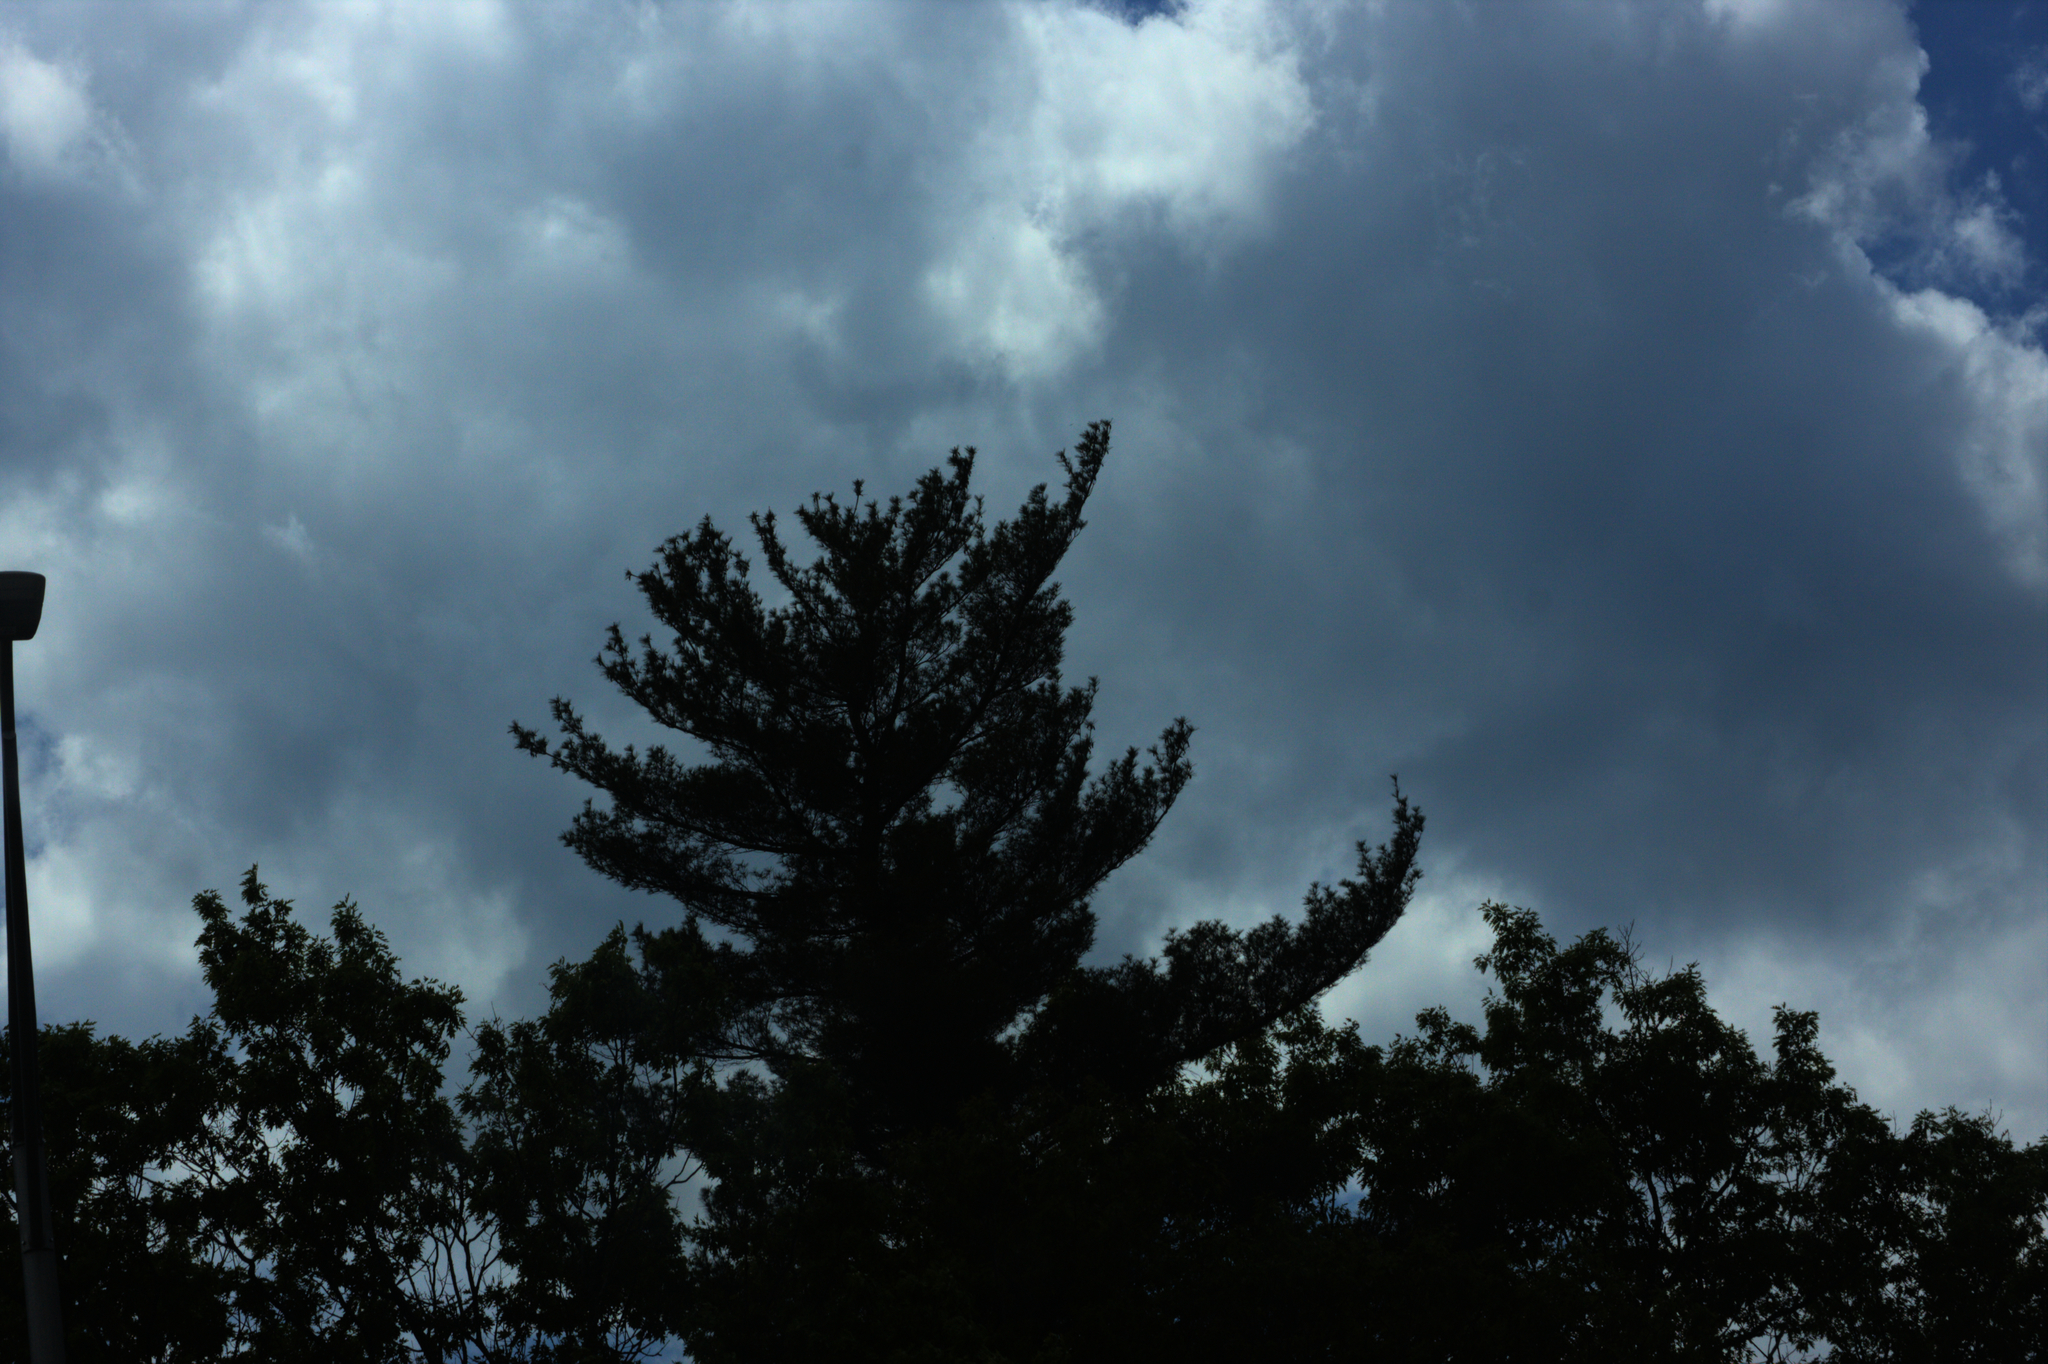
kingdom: Plantae
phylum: Tracheophyta
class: Pinopsida
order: Pinales
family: Pinaceae
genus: Pinus
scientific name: Pinus strobus
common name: Weymouth pine
